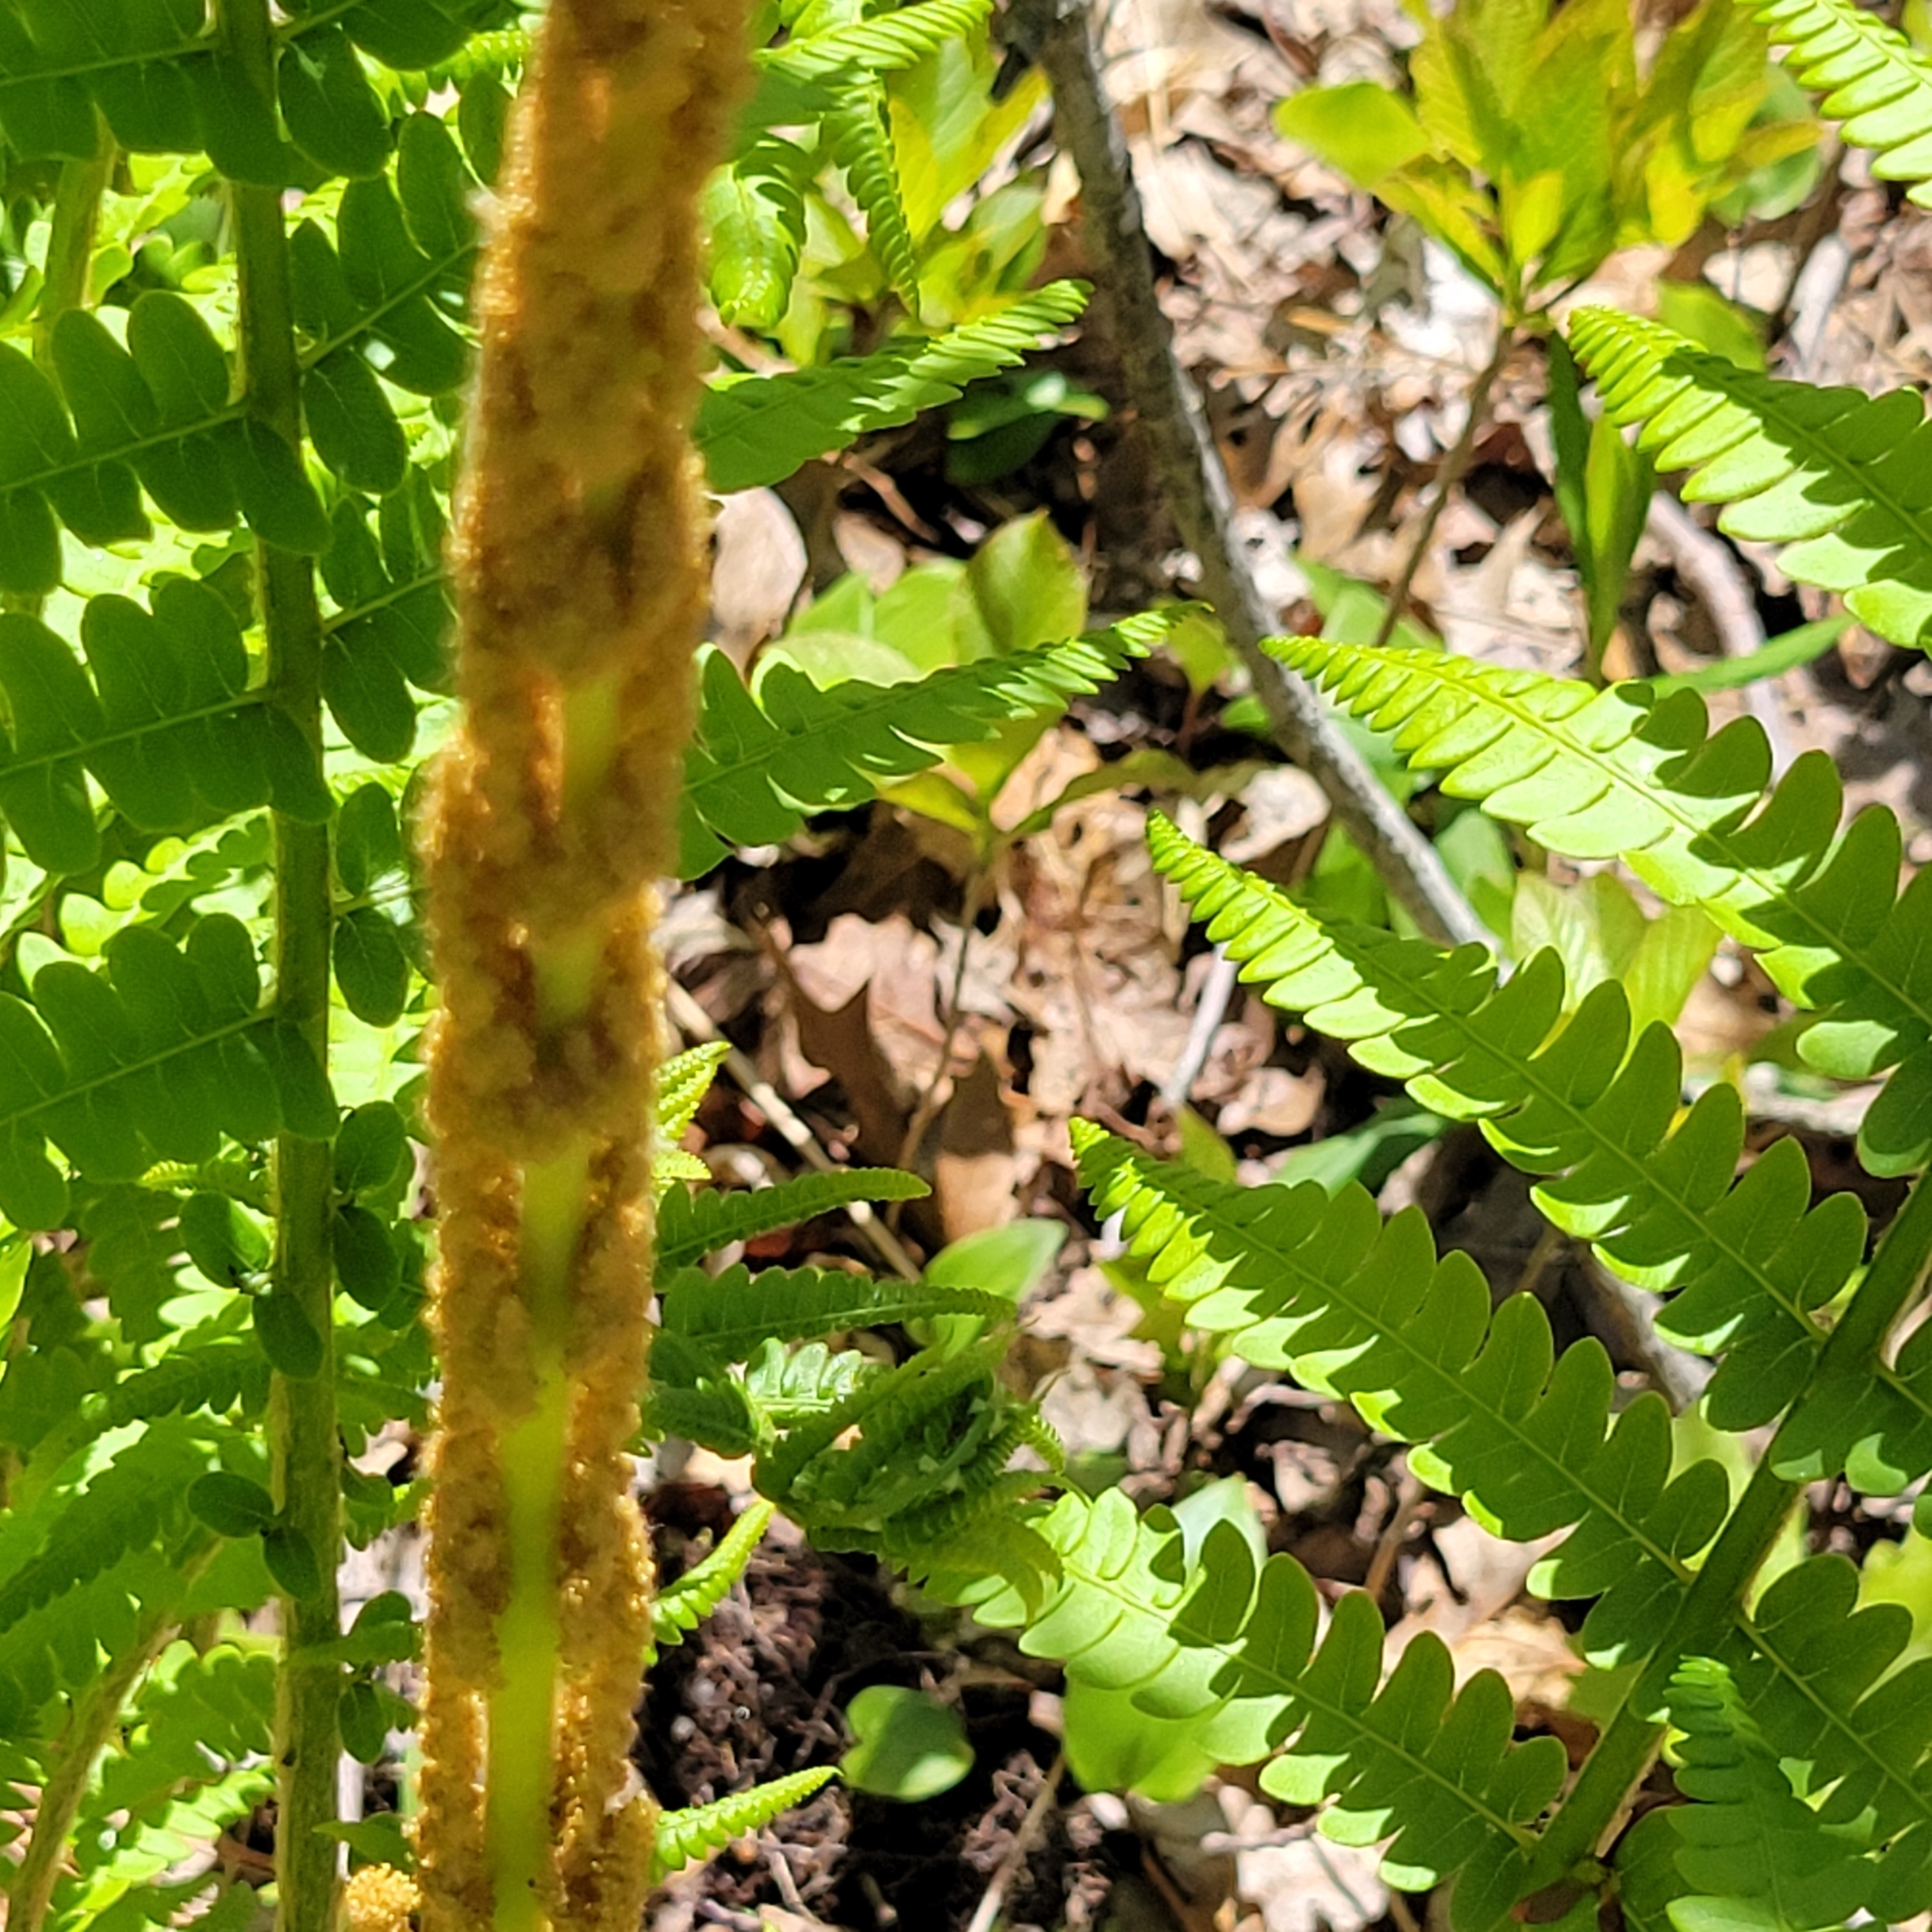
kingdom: Plantae
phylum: Tracheophyta
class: Polypodiopsida
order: Osmundales
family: Osmundaceae
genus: Osmundastrum
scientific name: Osmundastrum cinnamomeum
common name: Cinnamon fern
